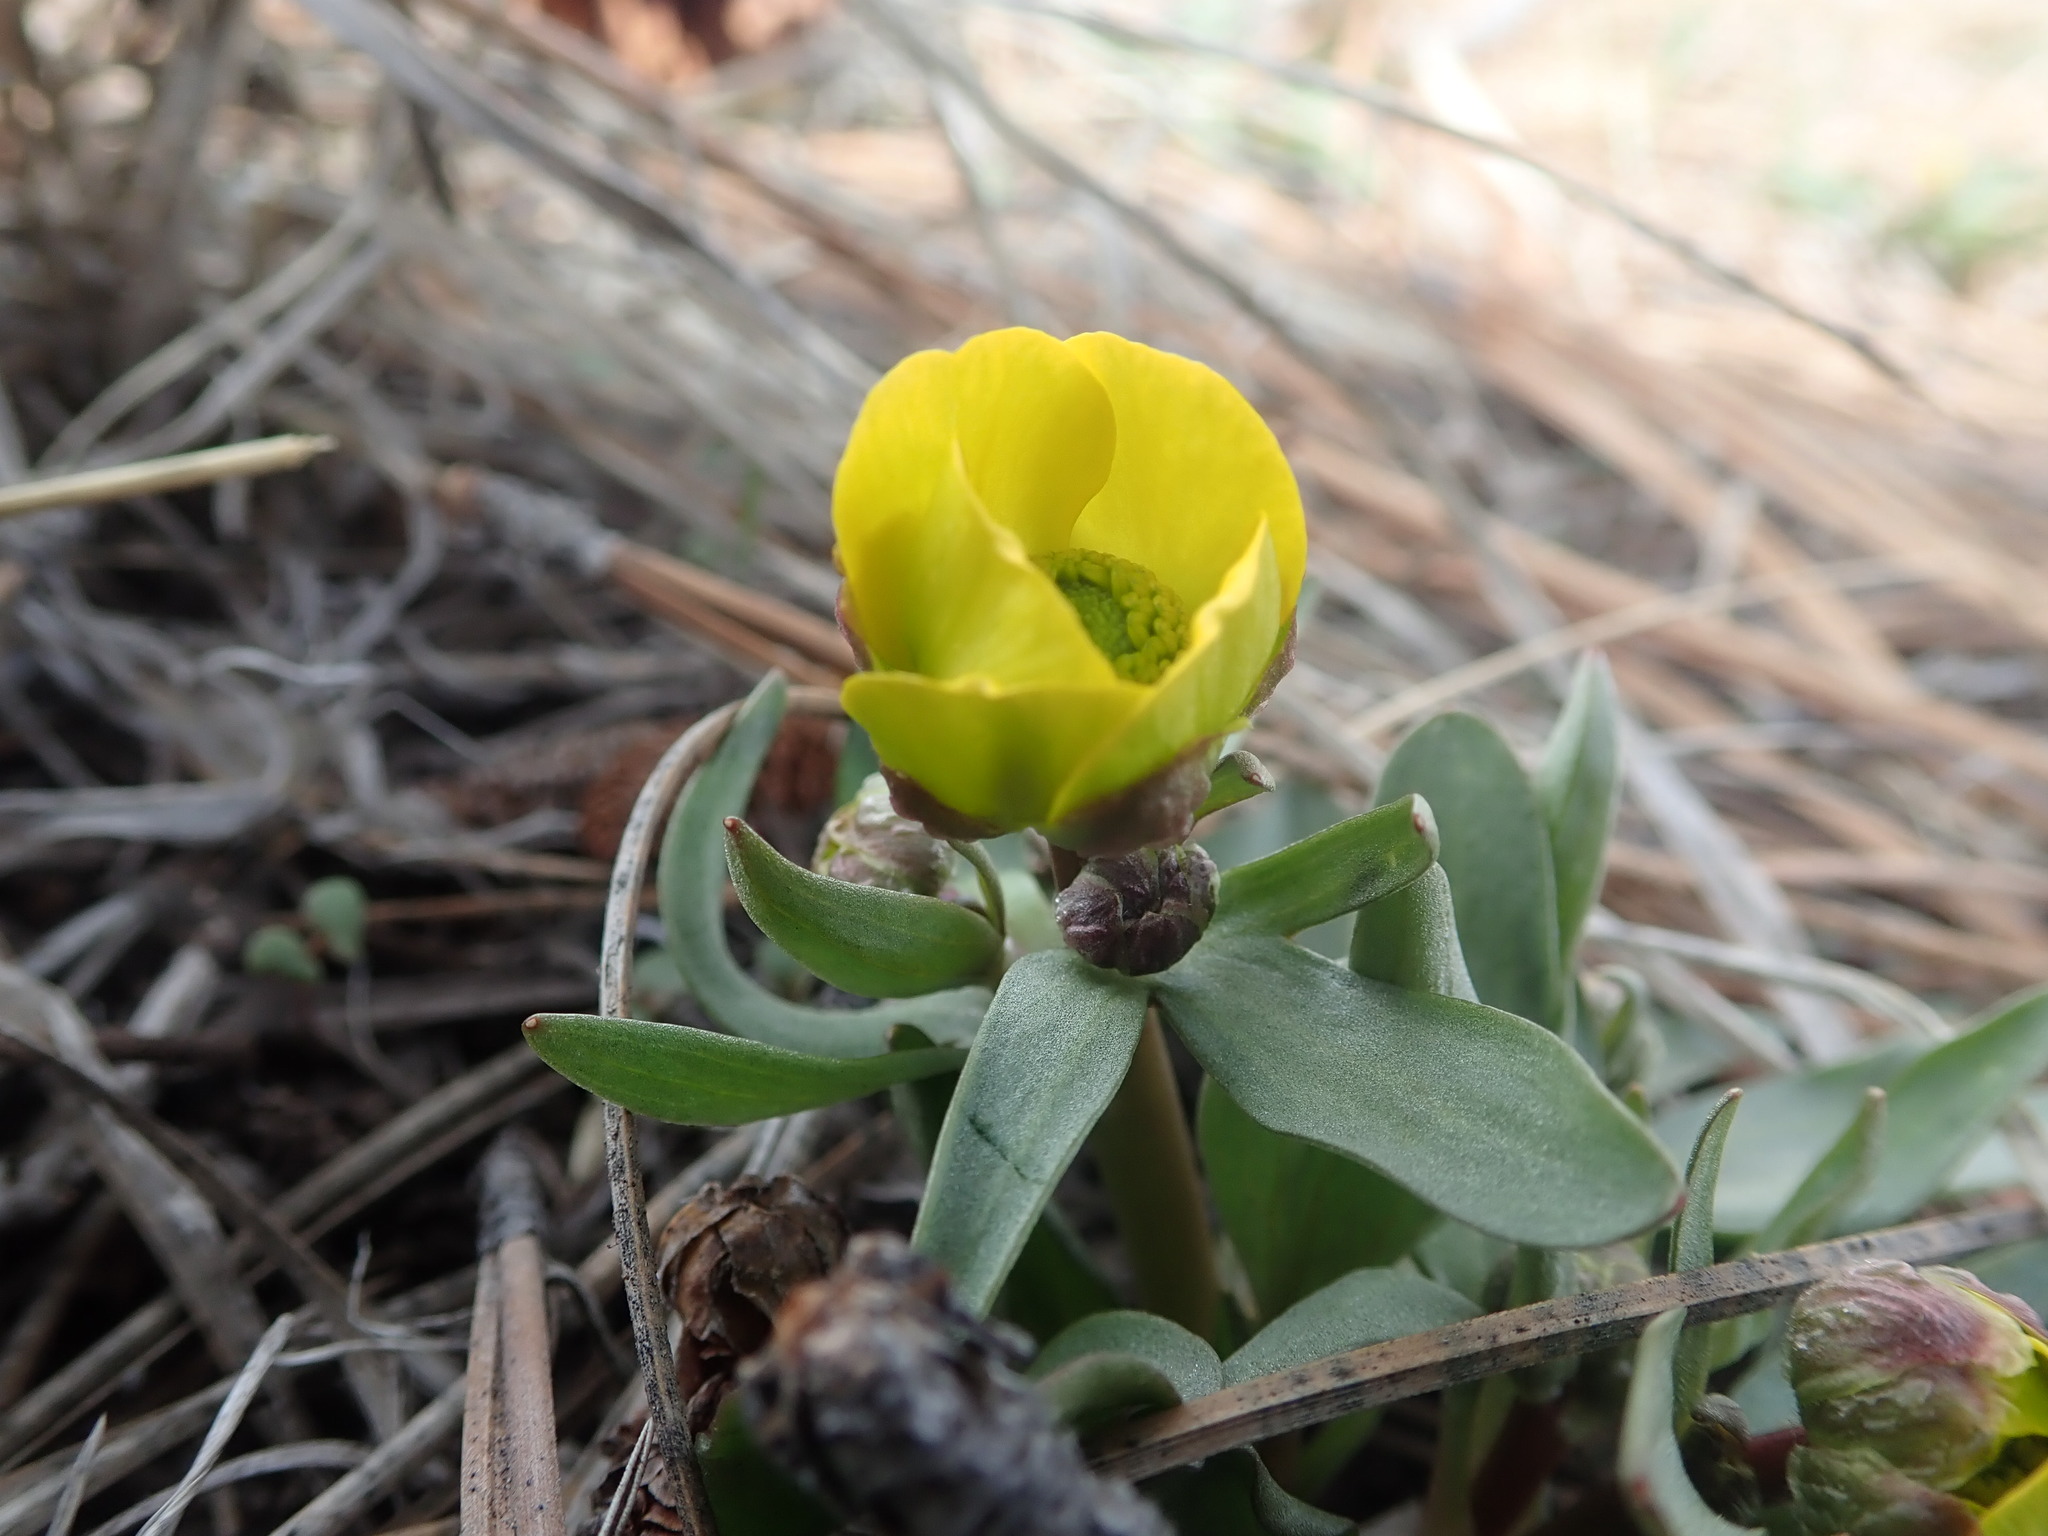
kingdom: Plantae
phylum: Tracheophyta
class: Magnoliopsida
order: Ranunculales
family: Ranunculaceae
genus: Ranunculus
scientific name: Ranunculus glaberrimus
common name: Sagebrush buttercup
